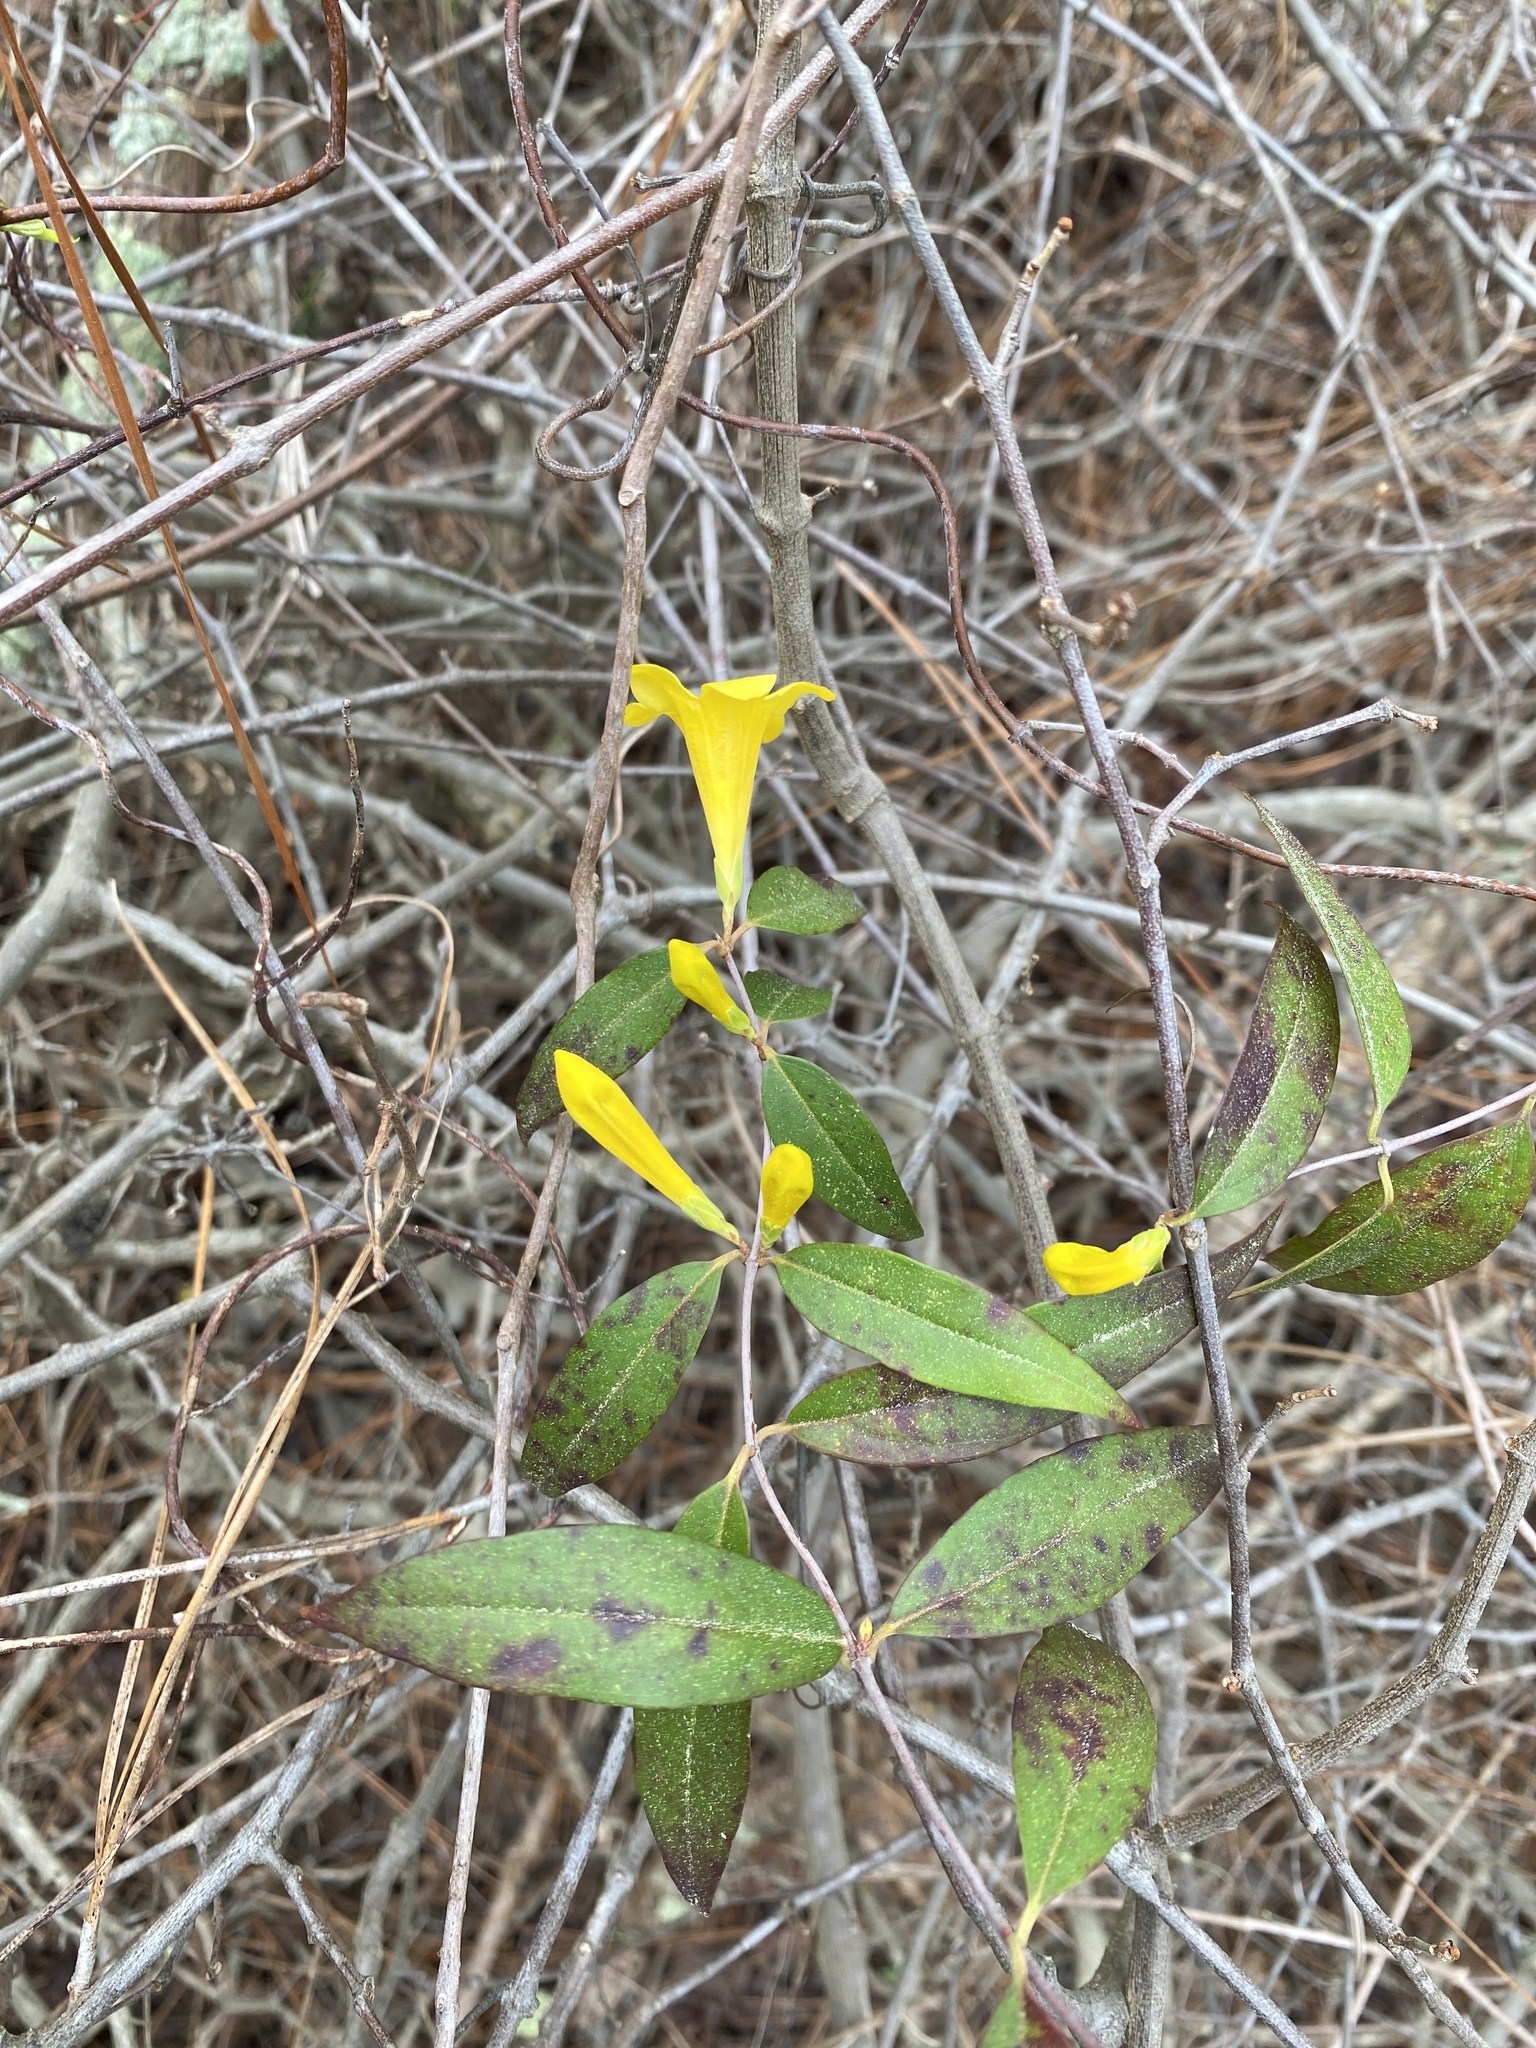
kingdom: Plantae
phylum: Tracheophyta
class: Magnoliopsida
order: Gentianales
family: Gelsemiaceae
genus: Gelsemium
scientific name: Gelsemium sempervirens
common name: Carolina-jasmine
